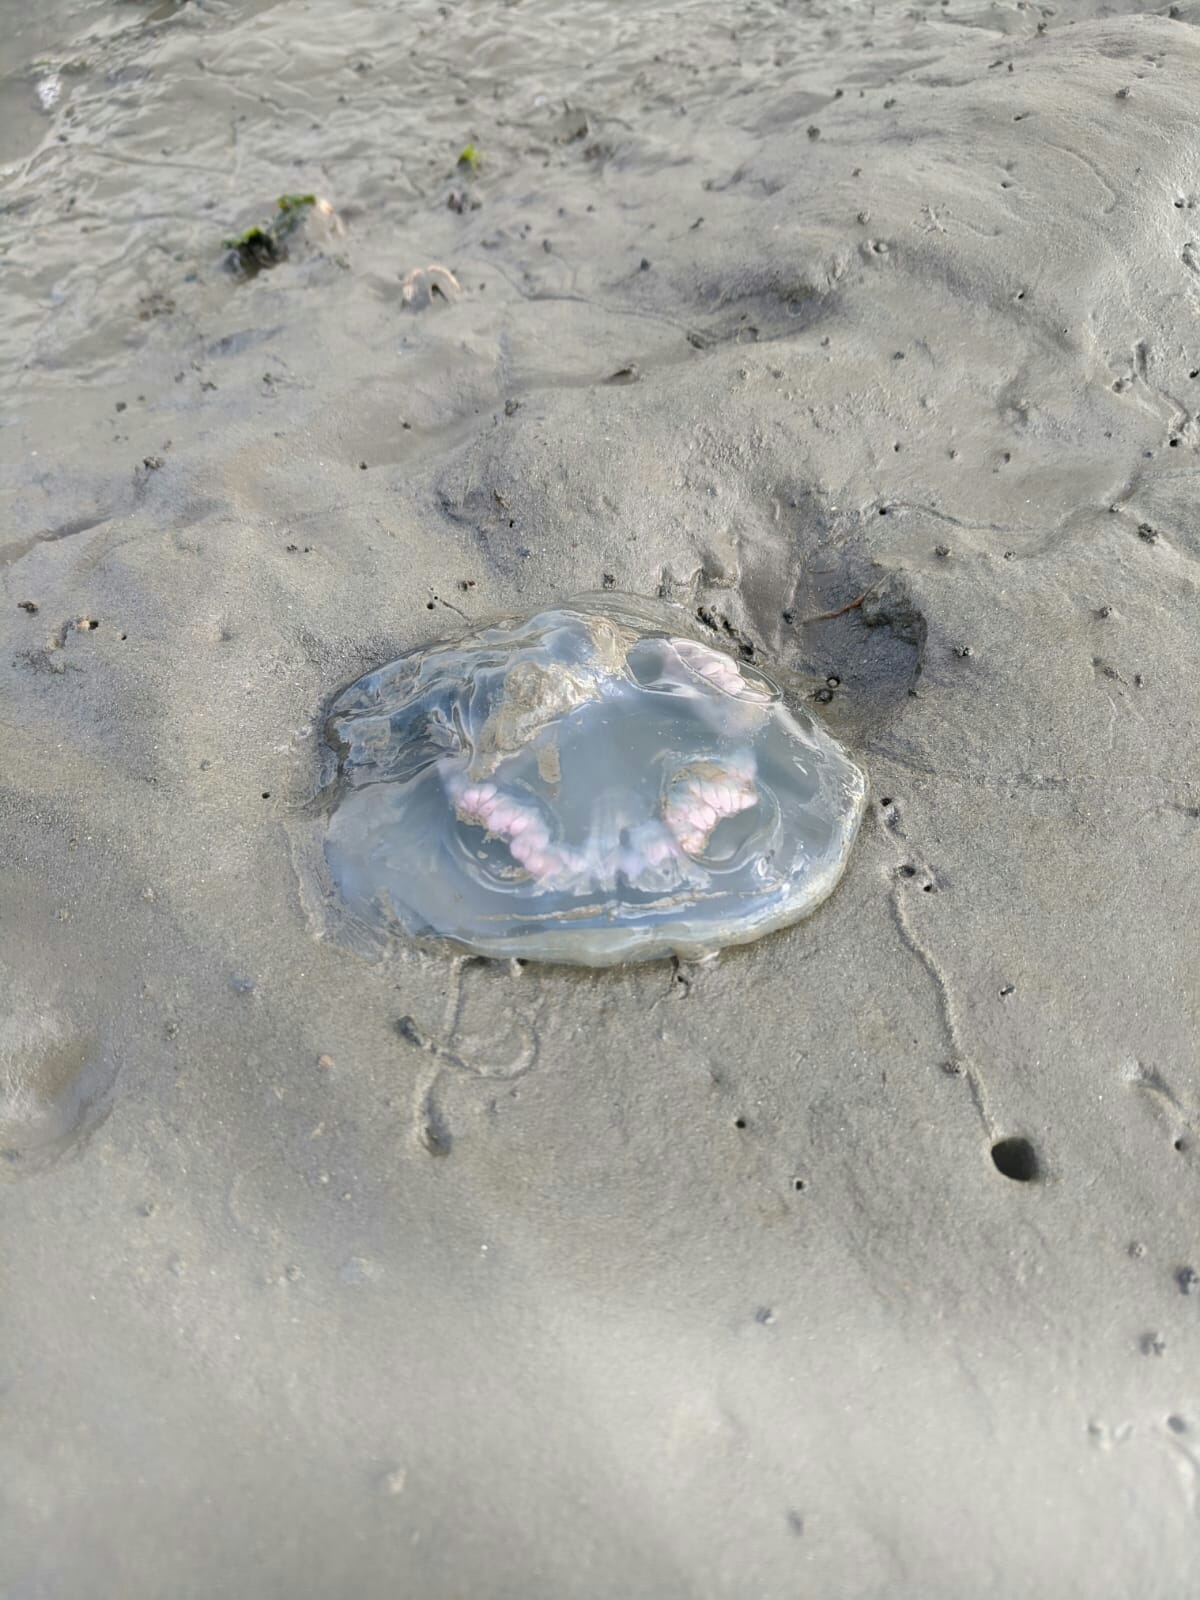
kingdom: Animalia
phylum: Cnidaria
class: Scyphozoa
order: Rhizostomeae
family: Rhizostomatidae
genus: Rhizostoma
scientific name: Rhizostoma octopus
